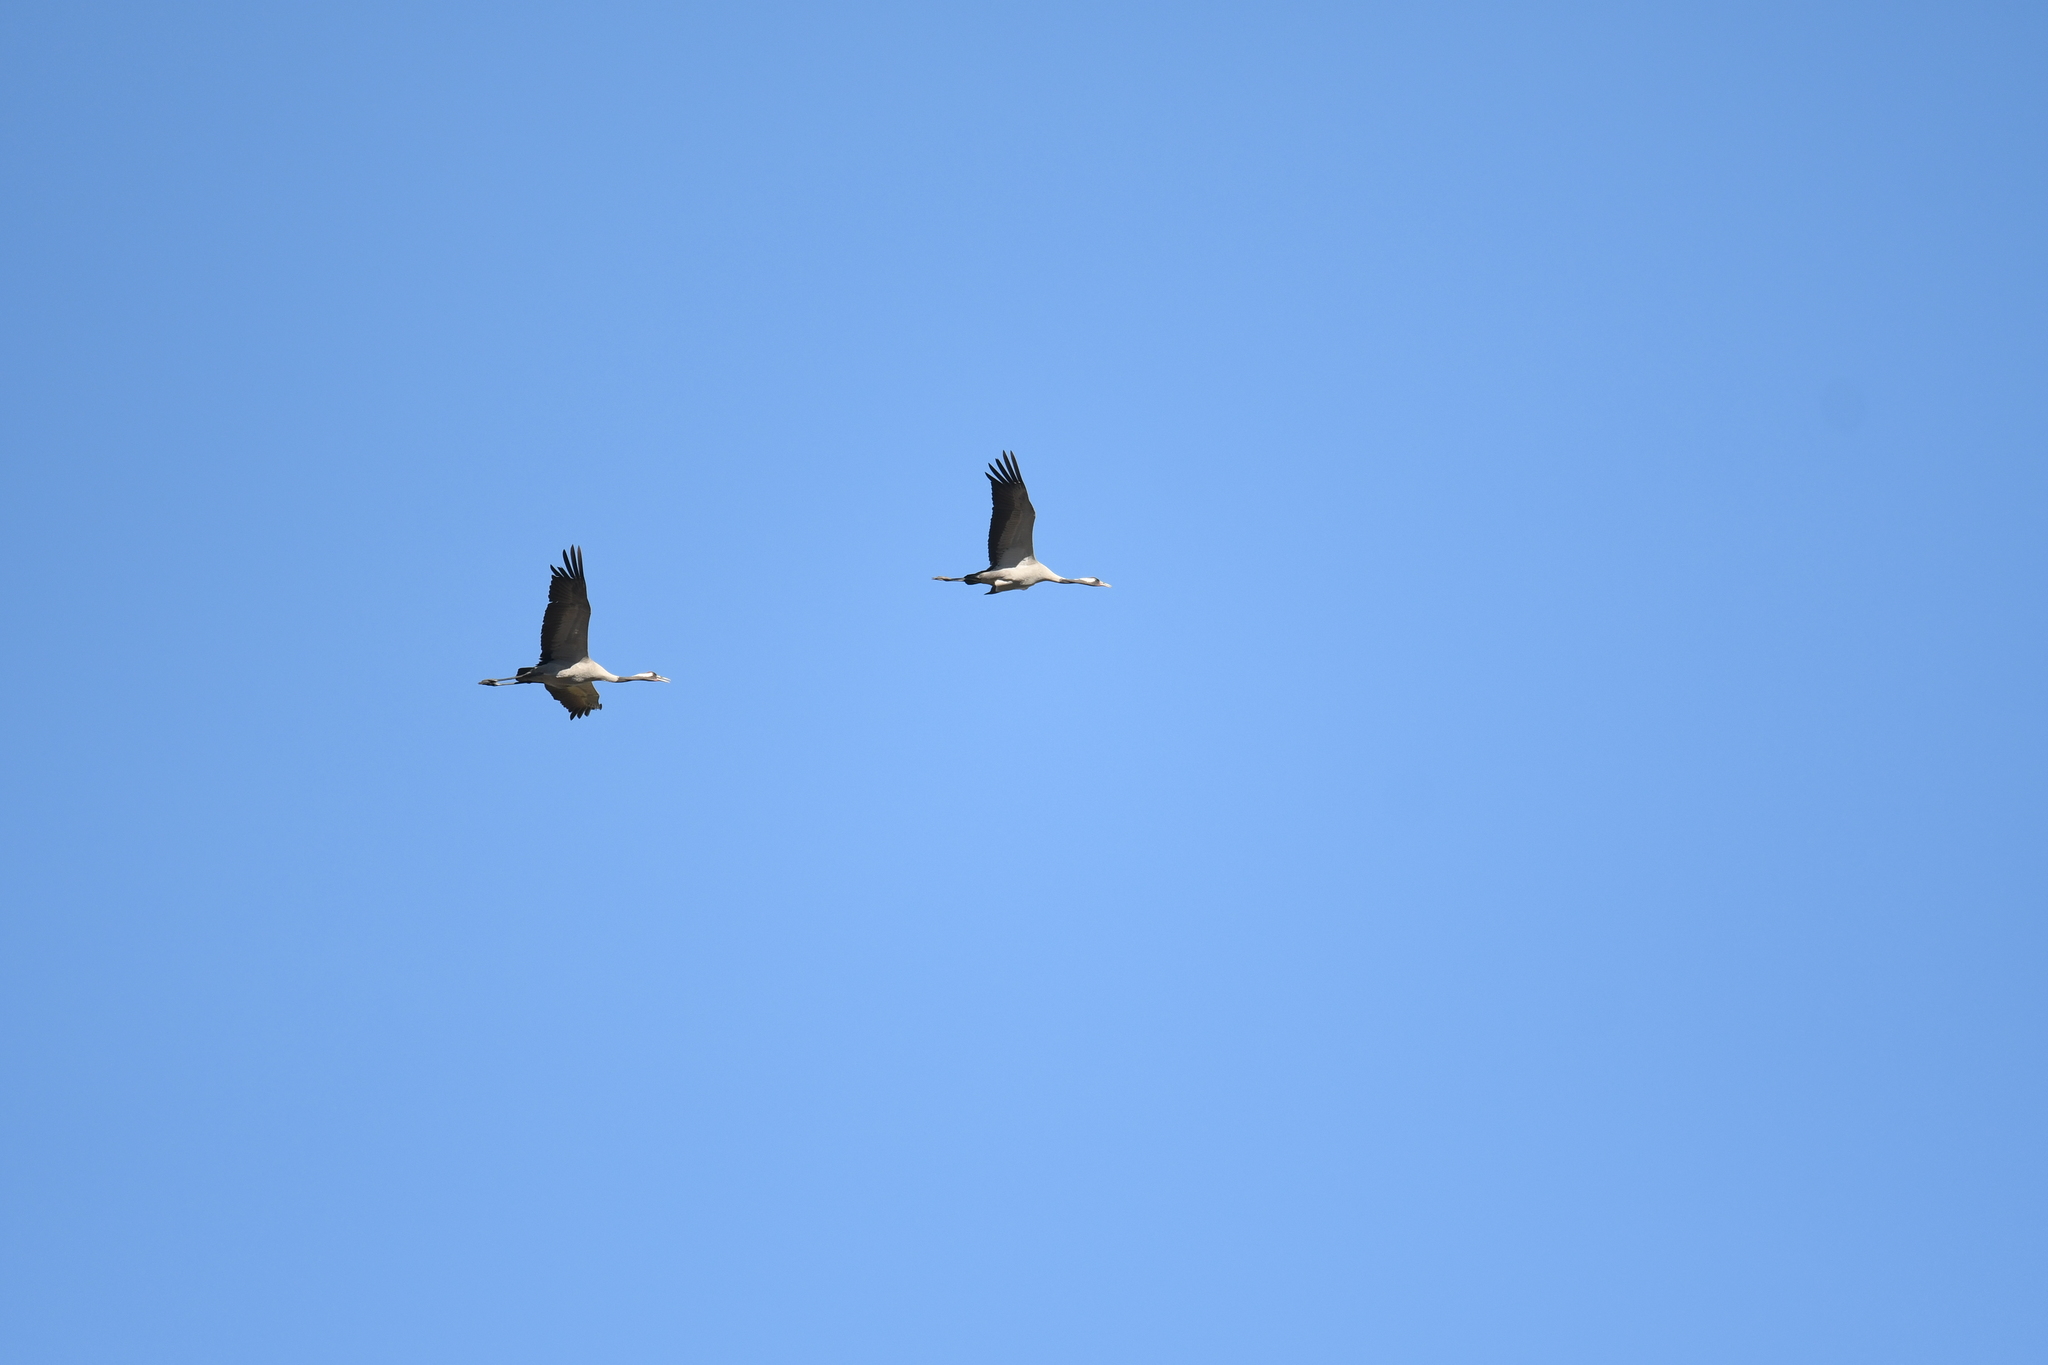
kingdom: Animalia
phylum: Chordata
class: Aves
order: Gruiformes
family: Gruidae
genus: Grus
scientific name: Grus grus
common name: Common crane
